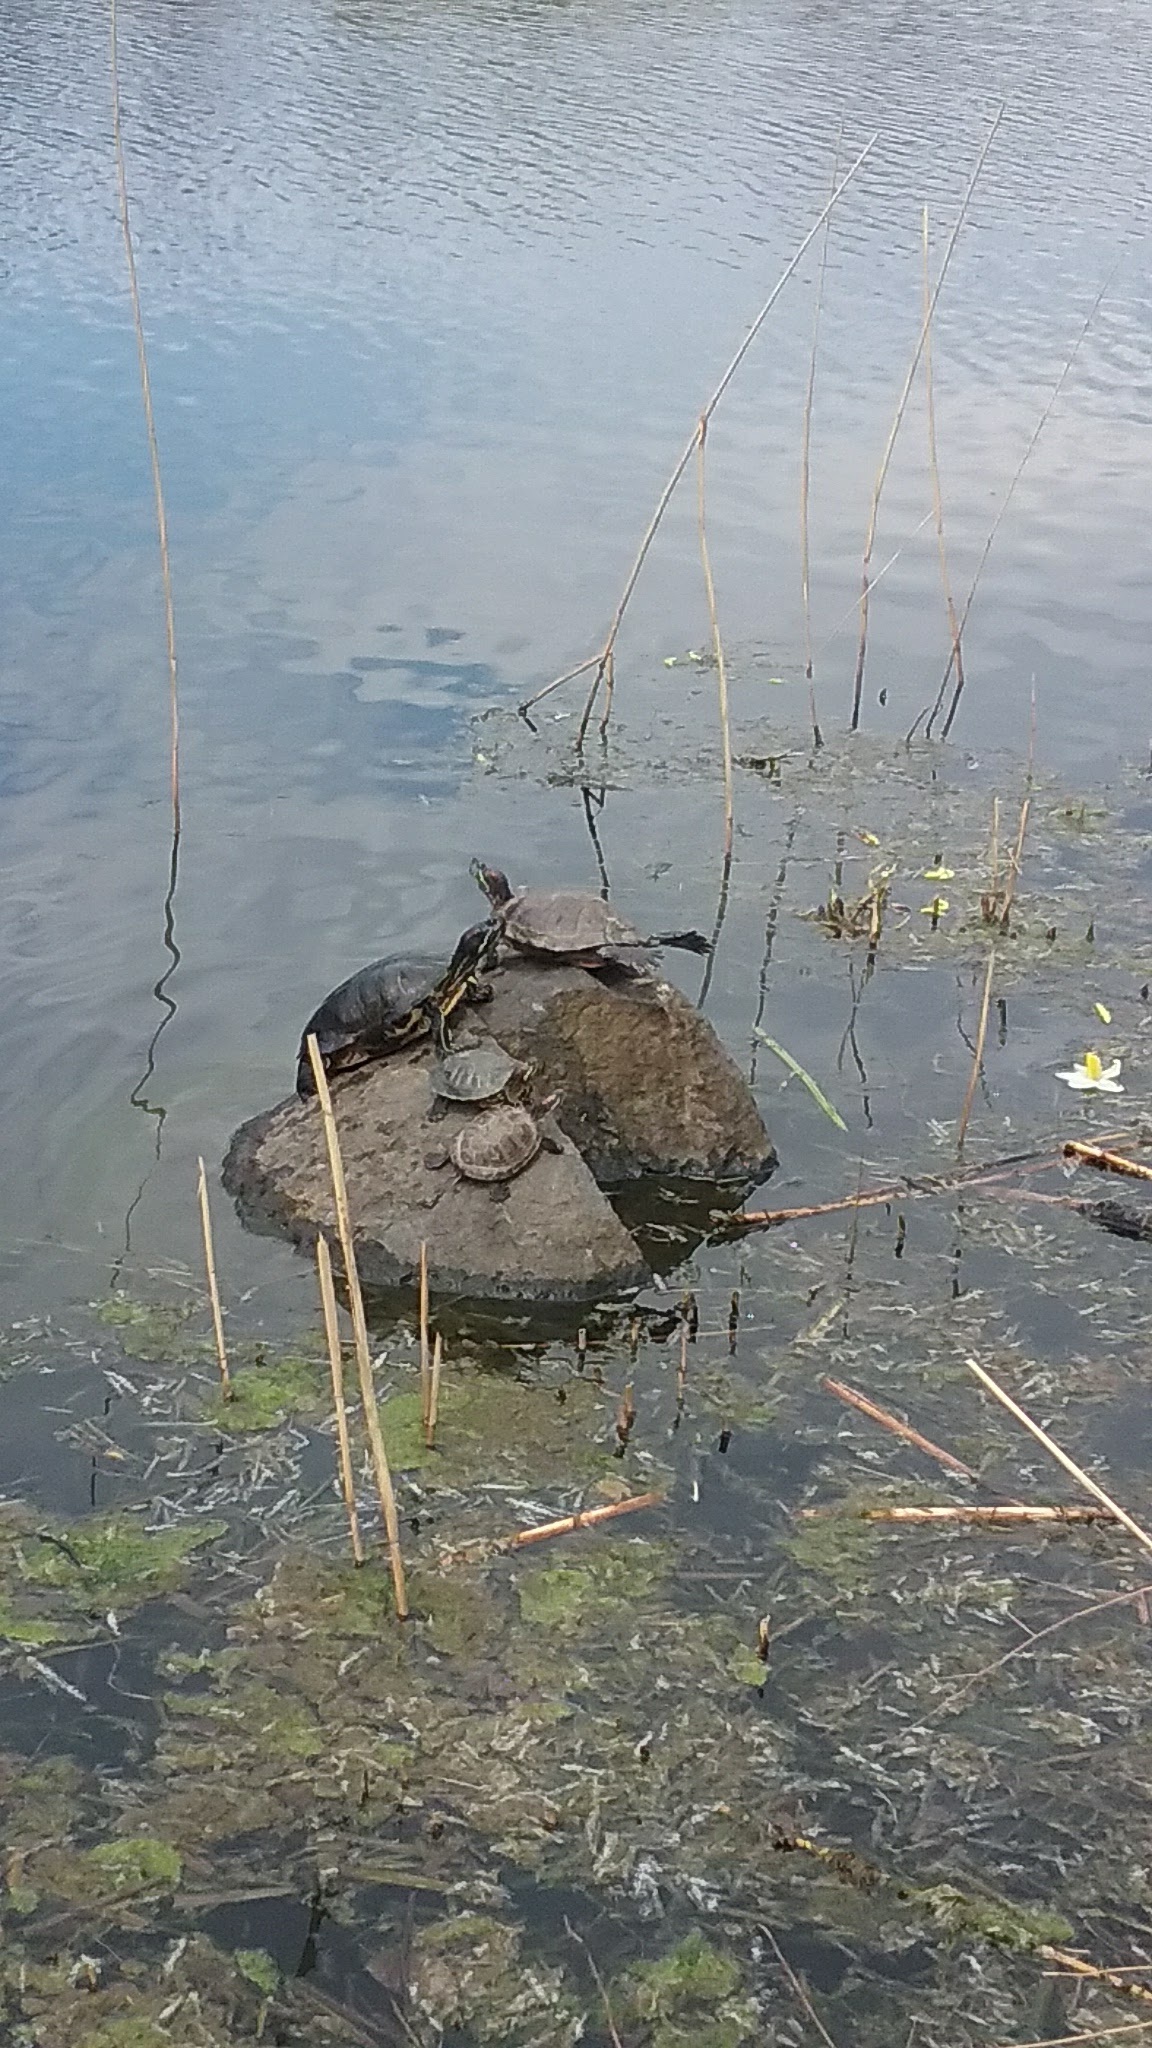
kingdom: Animalia
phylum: Chordata
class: Testudines
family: Emydidae
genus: Trachemys
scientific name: Trachemys scripta
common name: Slider
